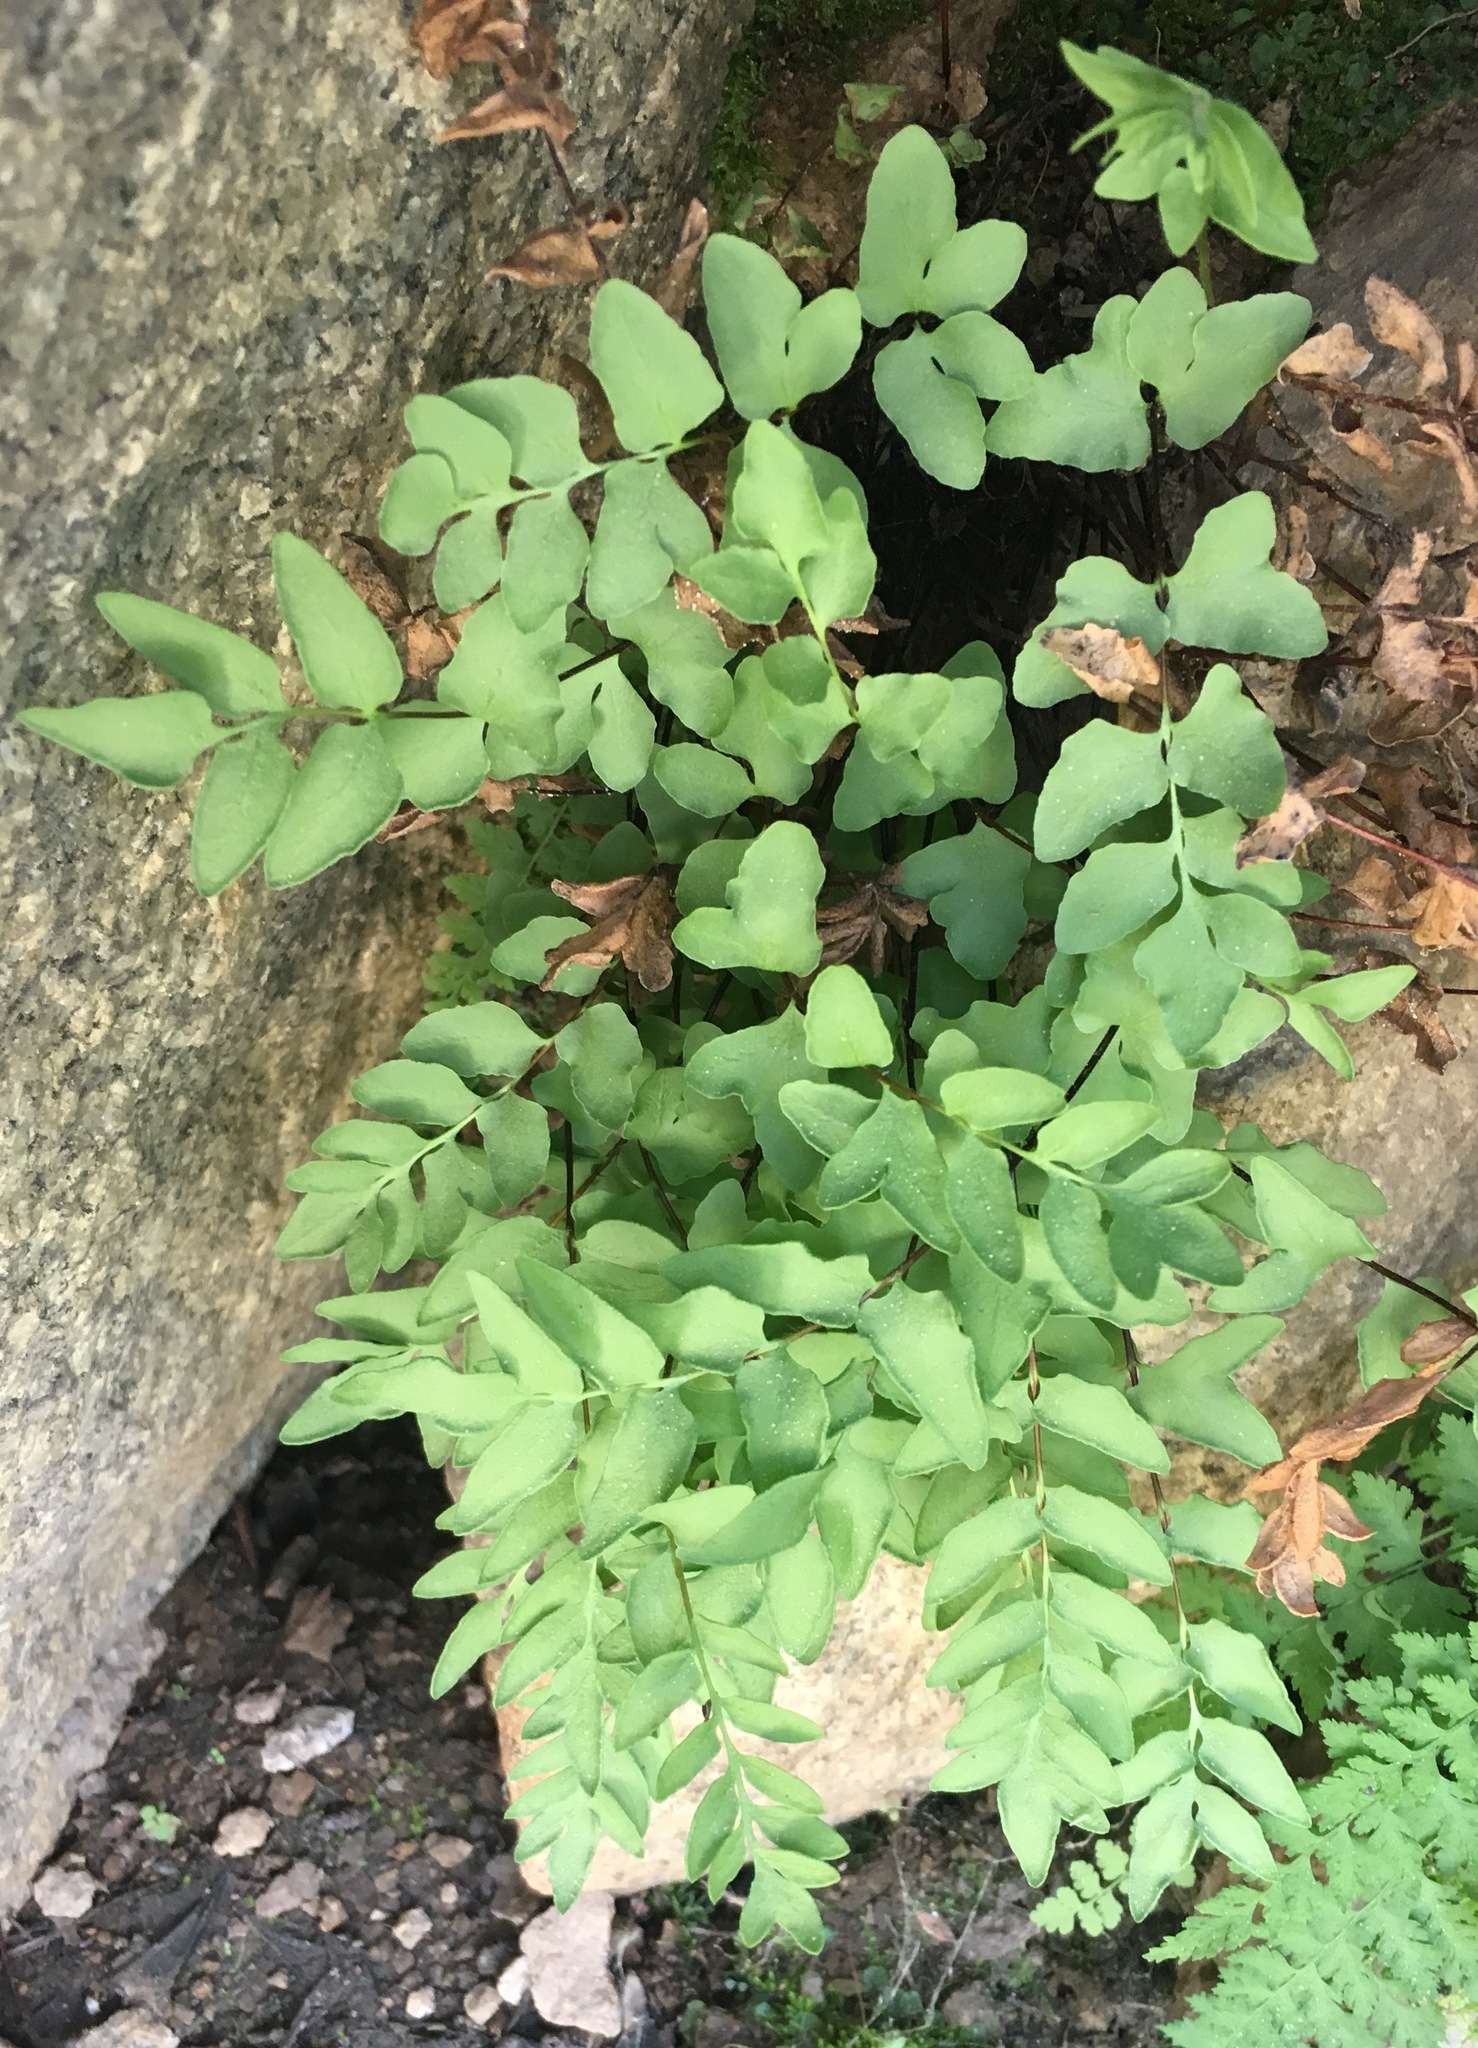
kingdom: Plantae
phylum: Tracheophyta
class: Polypodiopsida
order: Polypodiales
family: Pteridaceae
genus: Pellaea
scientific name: Pellaea breweri
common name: Brewer's cliffbrake
